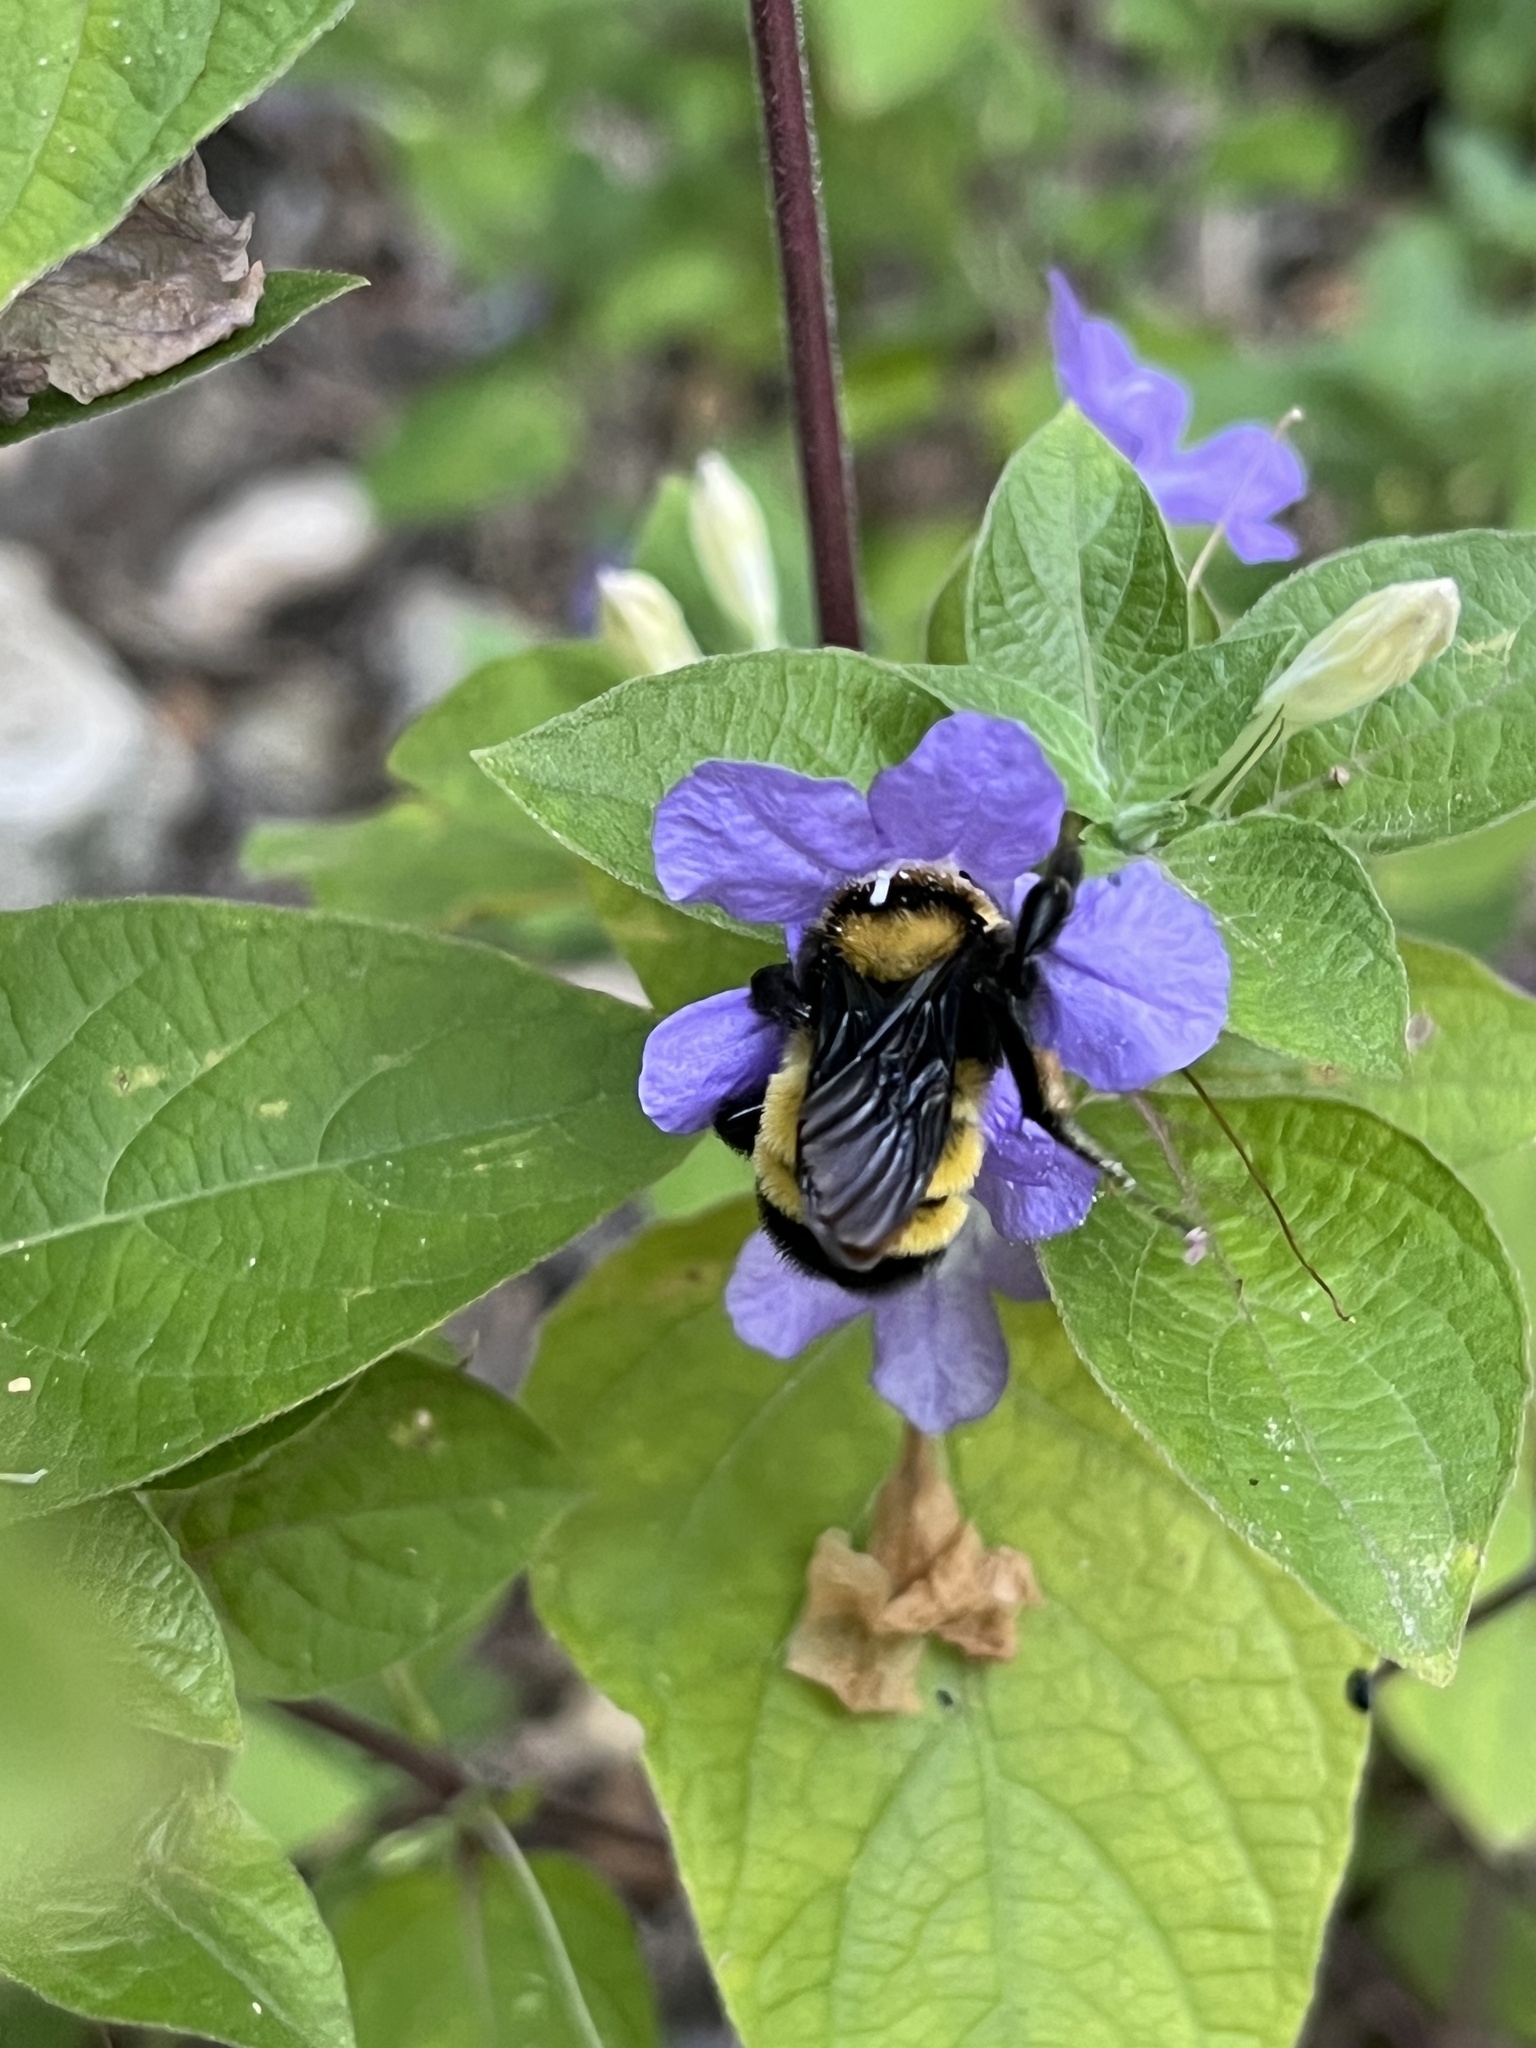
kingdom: Animalia
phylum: Arthropoda
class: Insecta
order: Hymenoptera
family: Apidae
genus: Bombus
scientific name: Bombus sonorus
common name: Sonoran bumble bee
